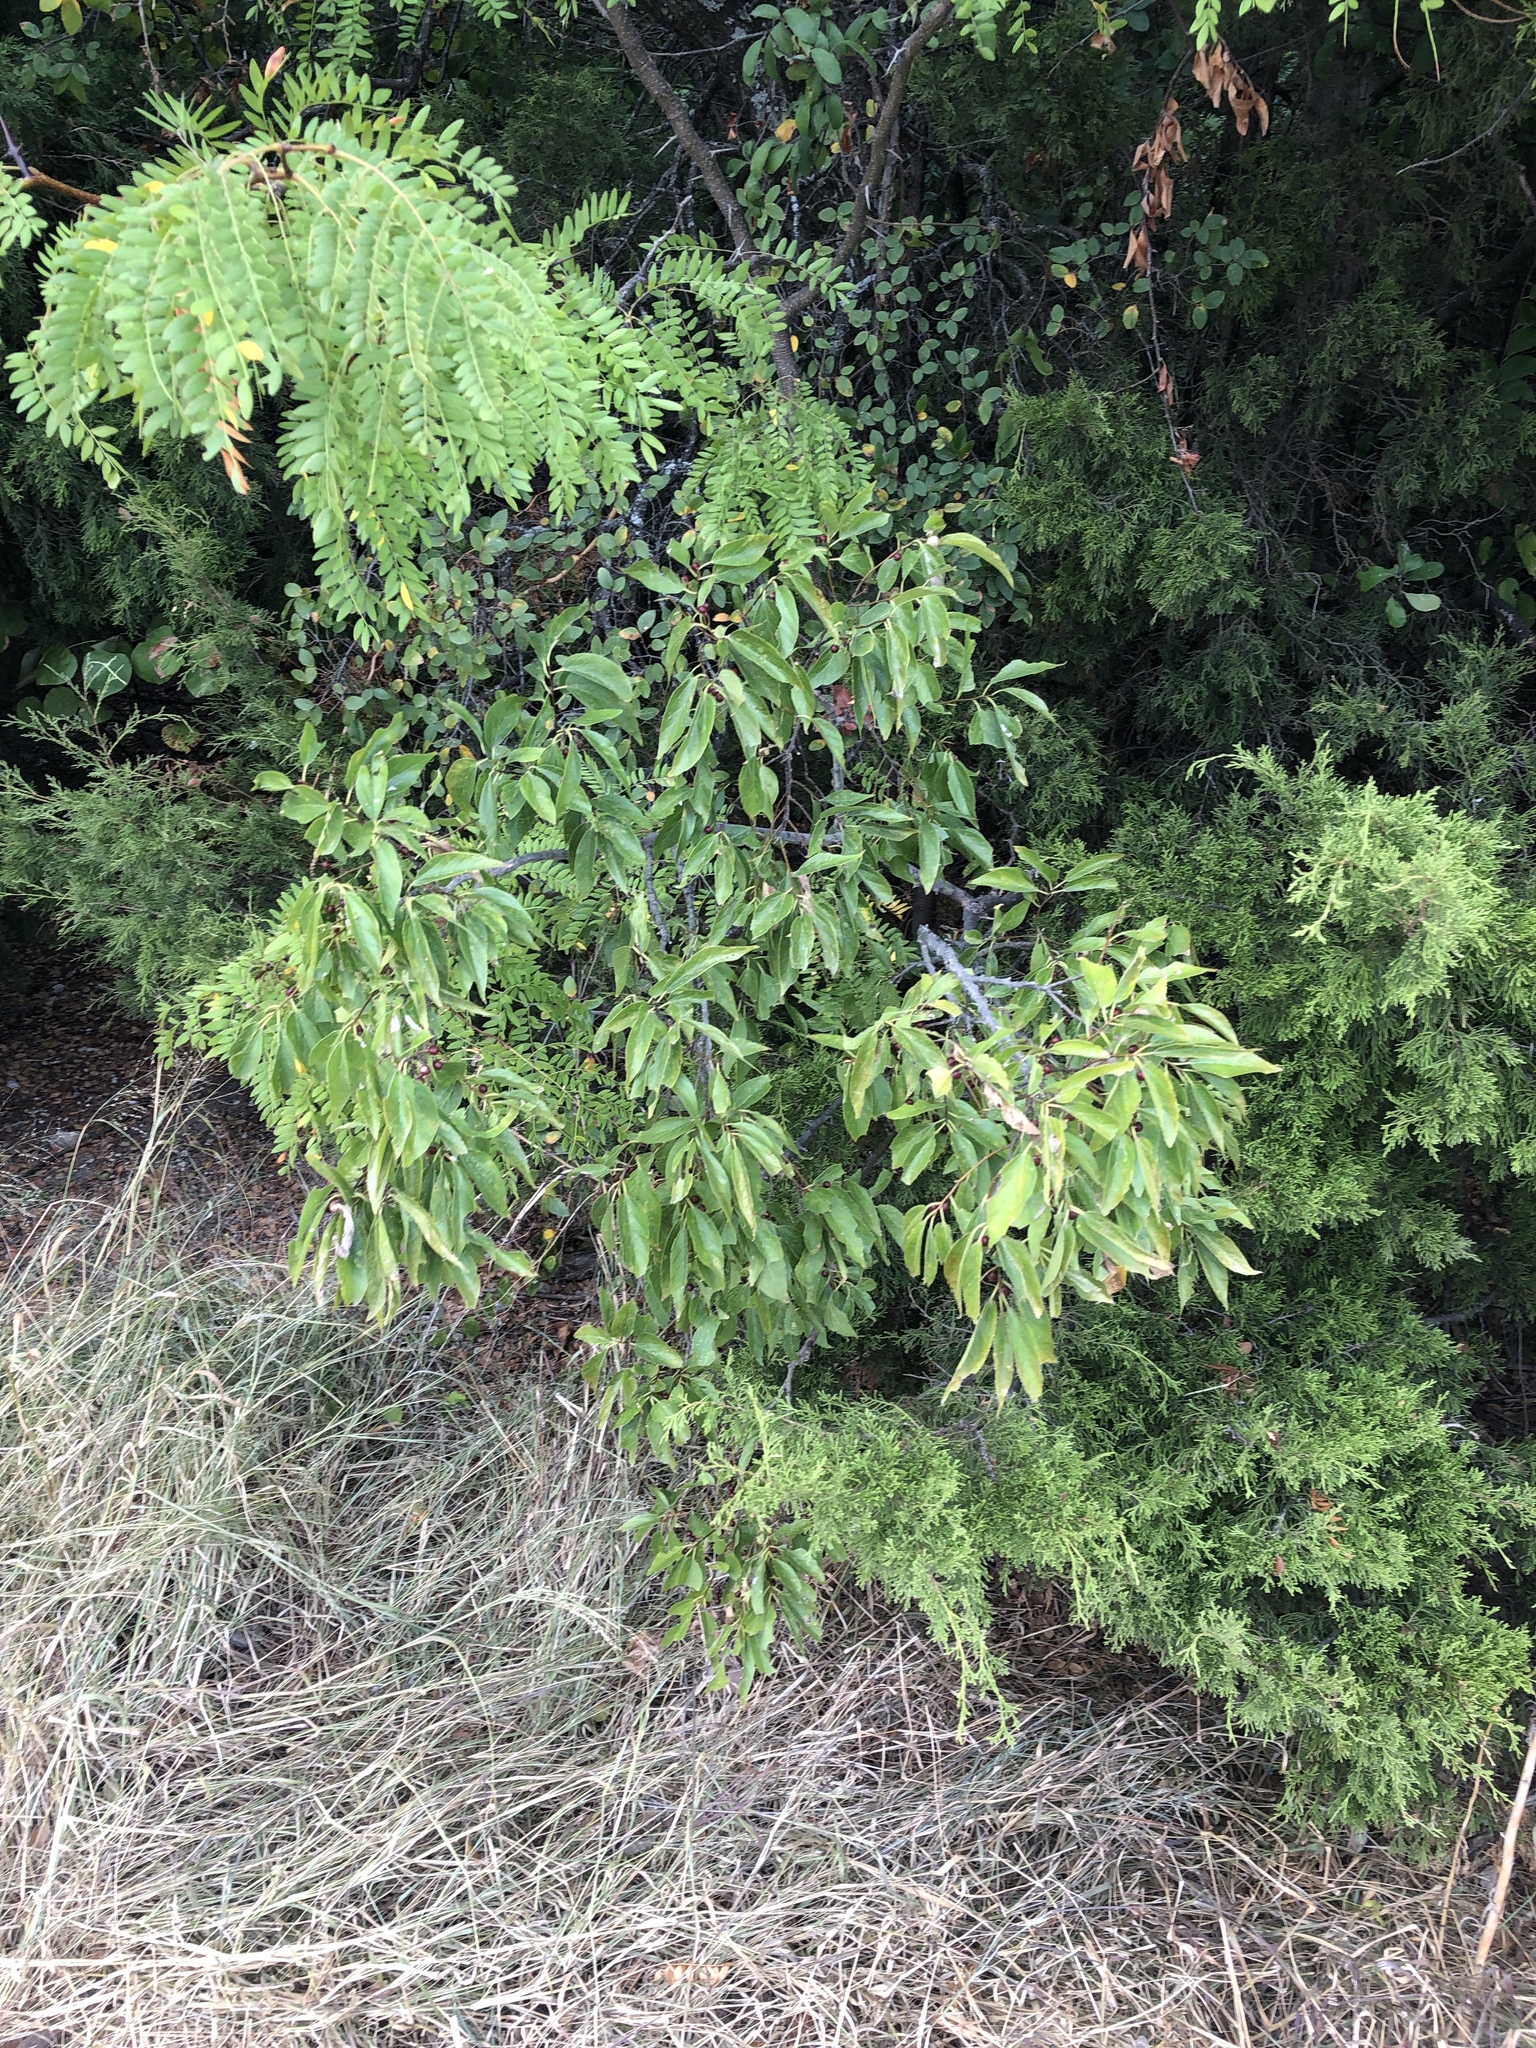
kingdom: Plantae
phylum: Tracheophyta
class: Magnoliopsida
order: Rosales
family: Cannabaceae
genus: Celtis
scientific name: Celtis laevigata
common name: Sugarberry
